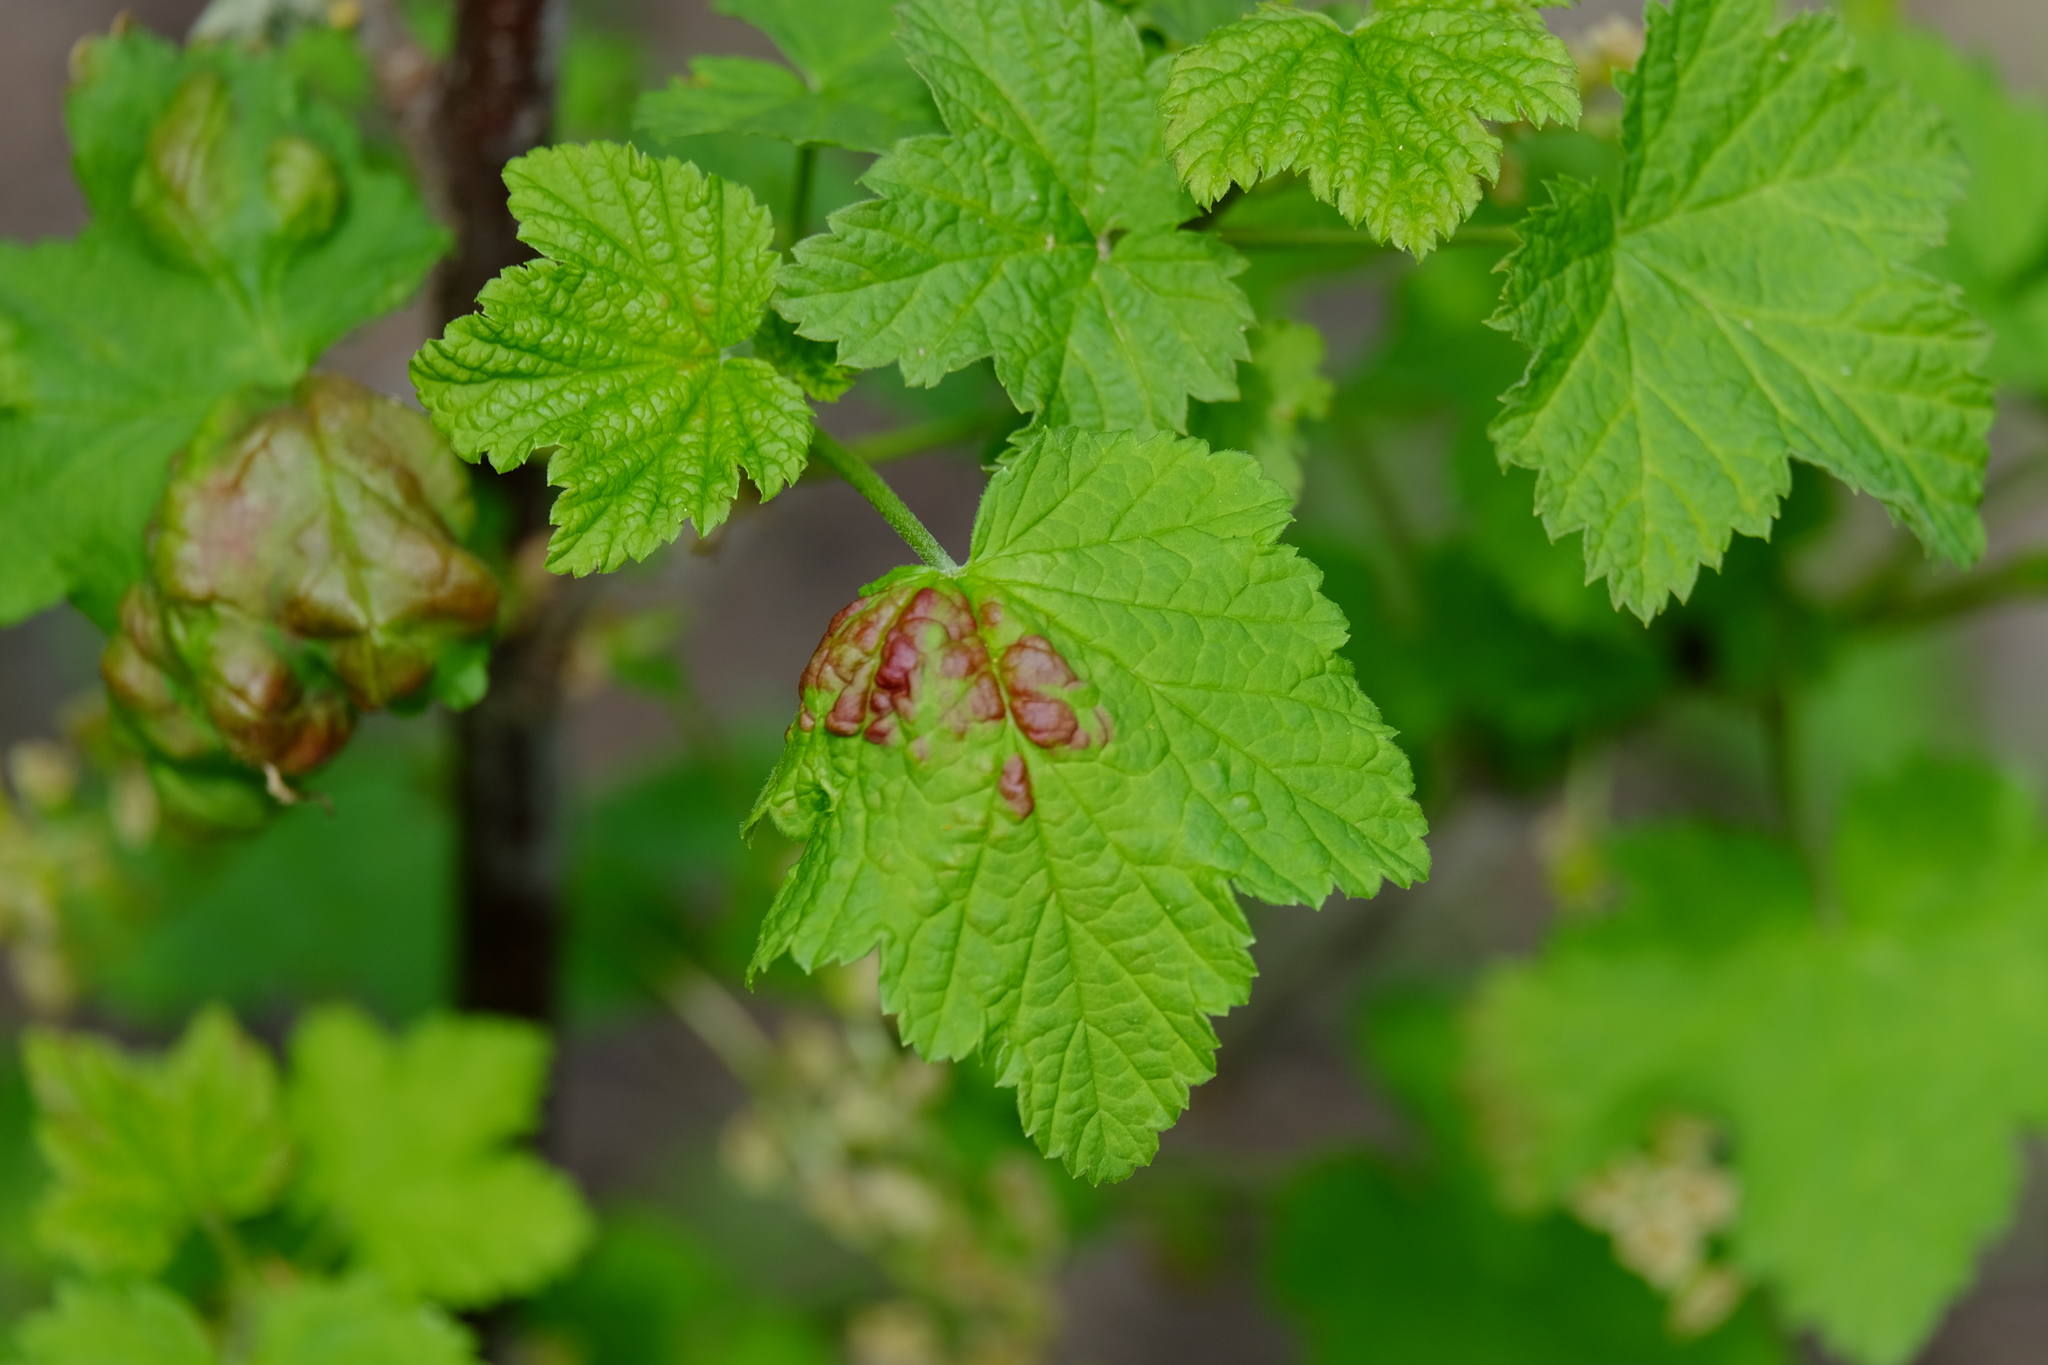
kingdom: Animalia
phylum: Arthropoda
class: Insecta
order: Hemiptera
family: Aphididae
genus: Cryptomyzus
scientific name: Cryptomyzus ribis
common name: Currant aphid
